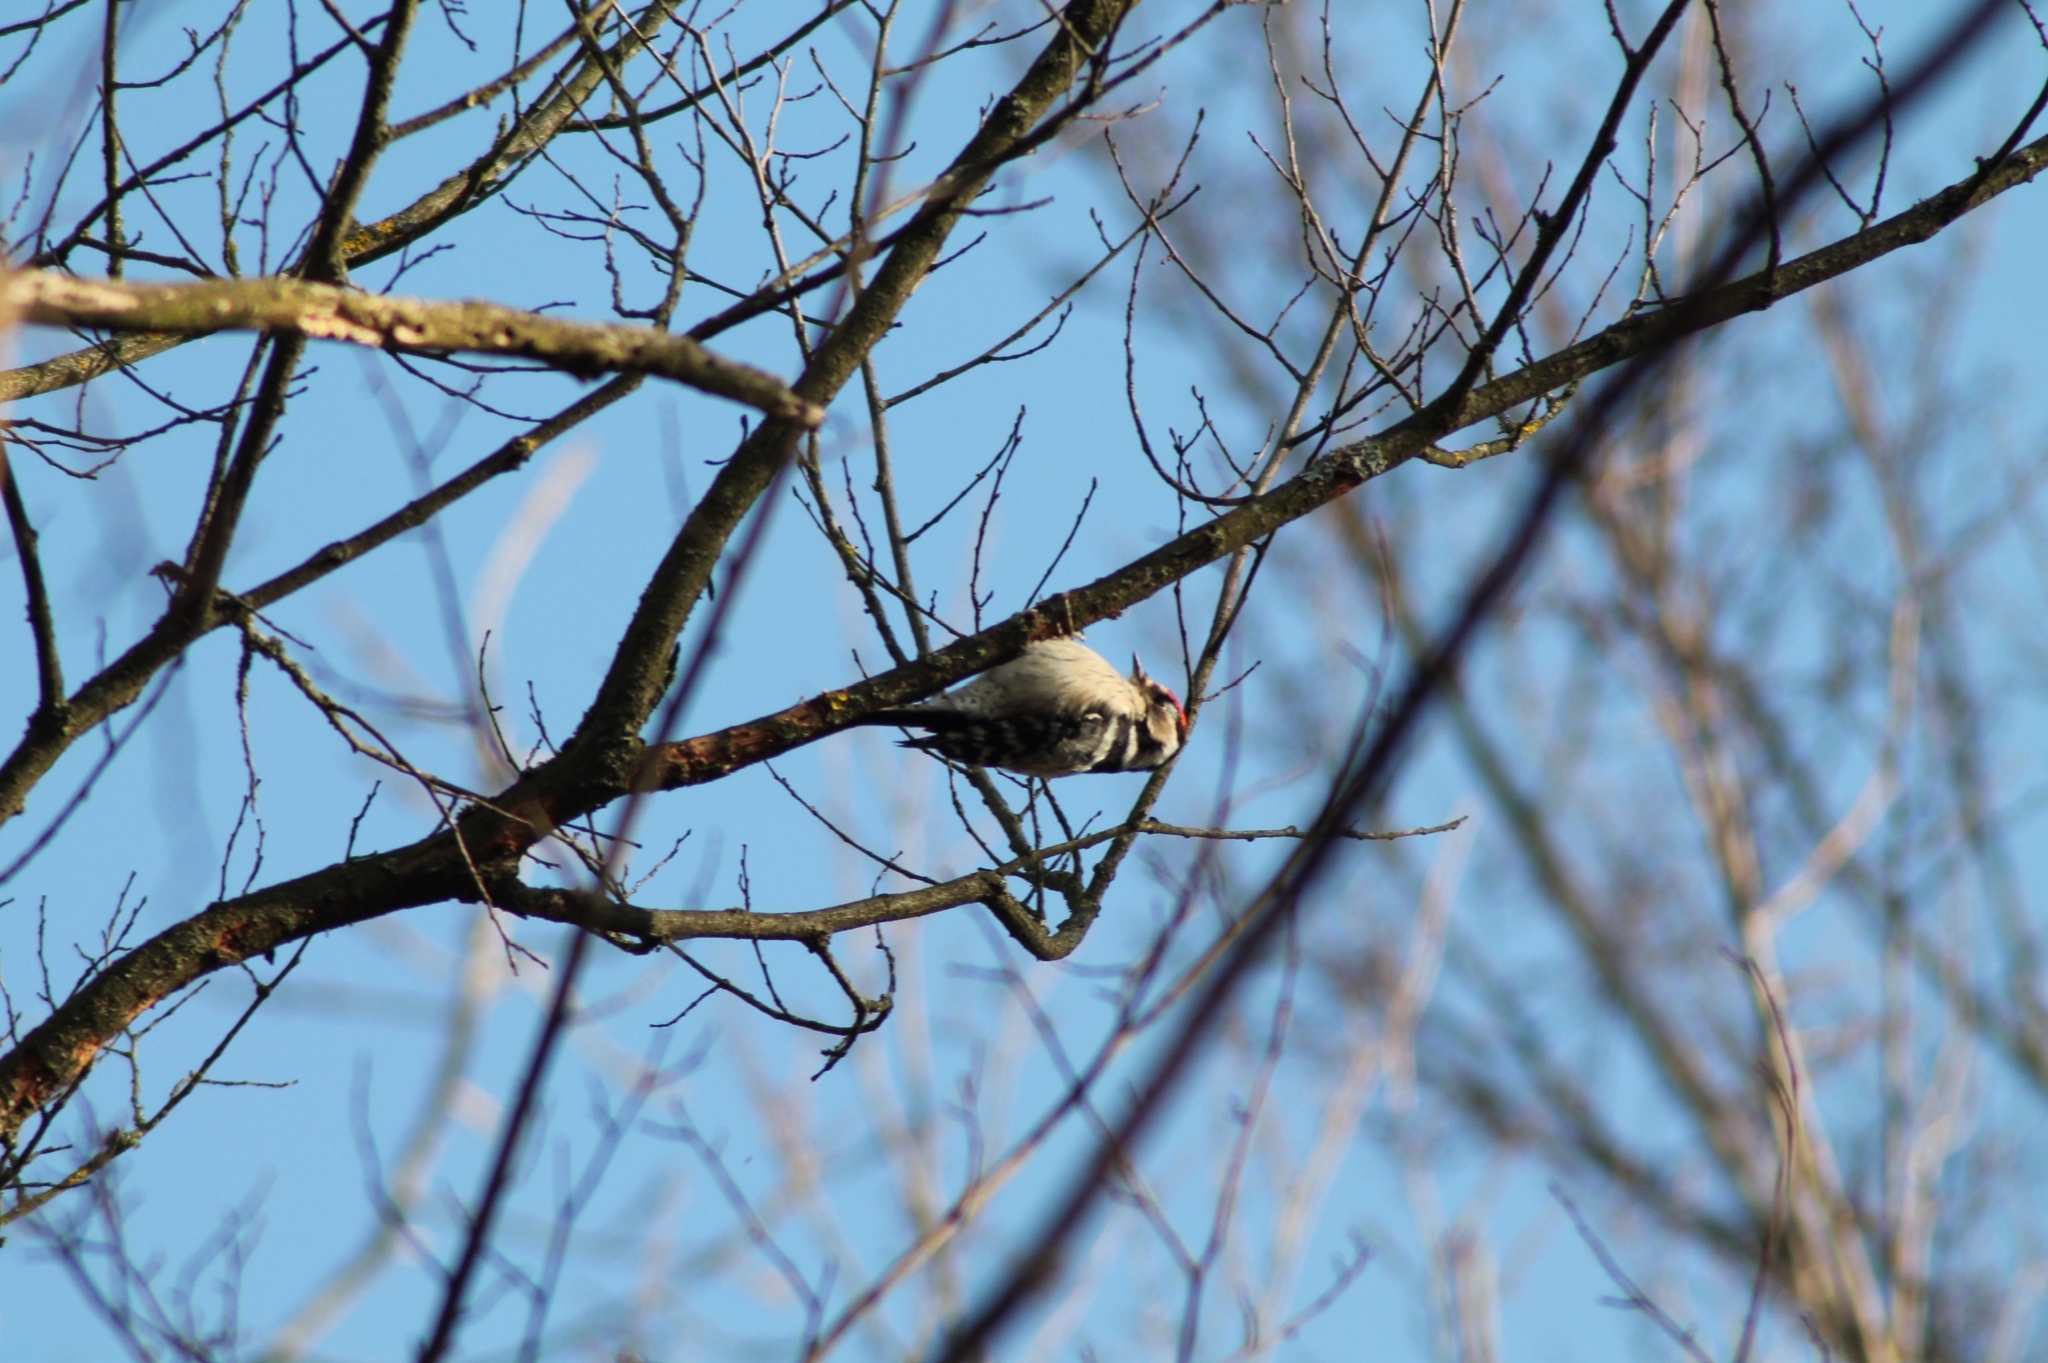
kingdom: Animalia
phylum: Chordata
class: Aves
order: Piciformes
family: Picidae
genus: Dryobates
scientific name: Dryobates minor
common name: Lesser spotted woodpecker
